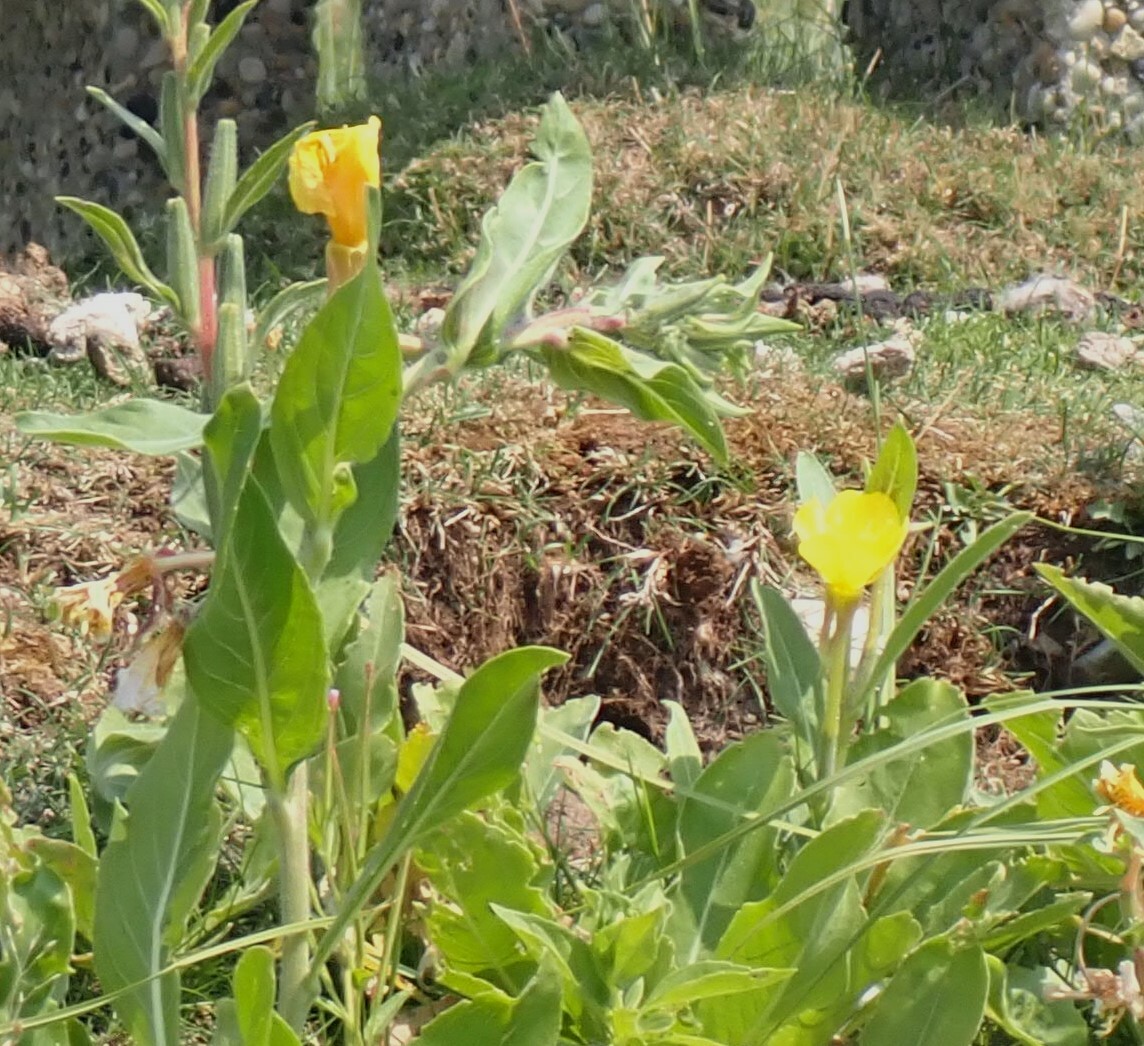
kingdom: Plantae
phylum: Tracheophyta
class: Magnoliopsida
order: Myrtales
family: Onagraceae
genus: Oenothera
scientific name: Oenothera villosa
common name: Hairy evening-primrose
